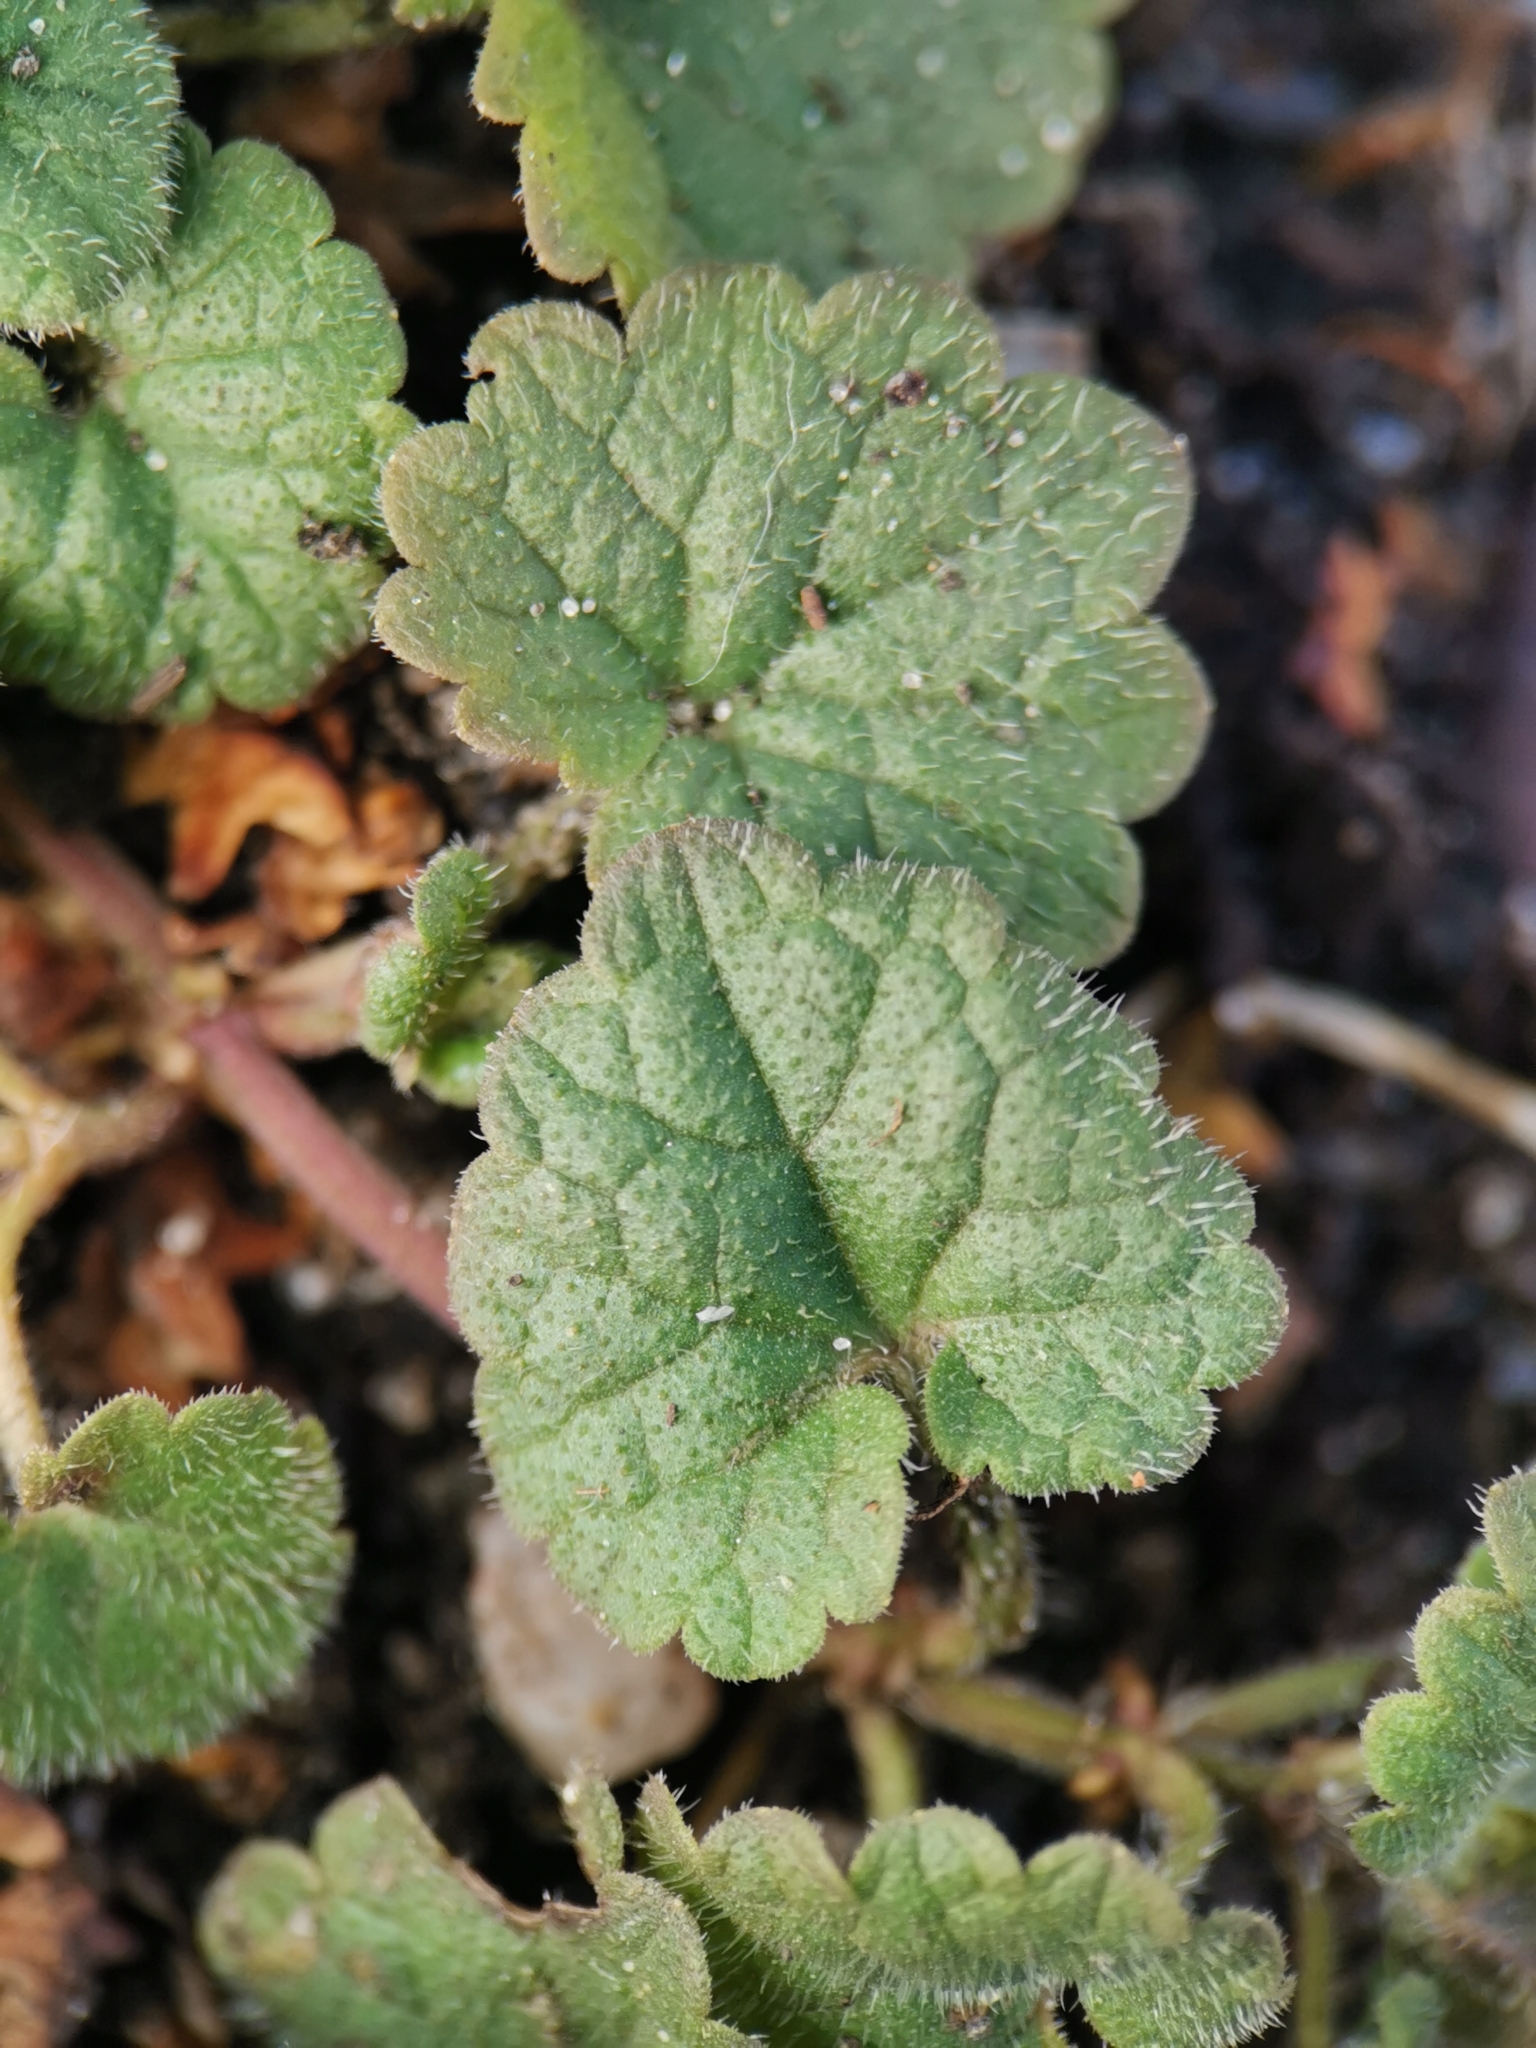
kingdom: Plantae
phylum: Tracheophyta
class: Magnoliopsida
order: Lamiales
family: Lamiaceae
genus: Glechoma
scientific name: Glechoma hederacea
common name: Ground ivy
